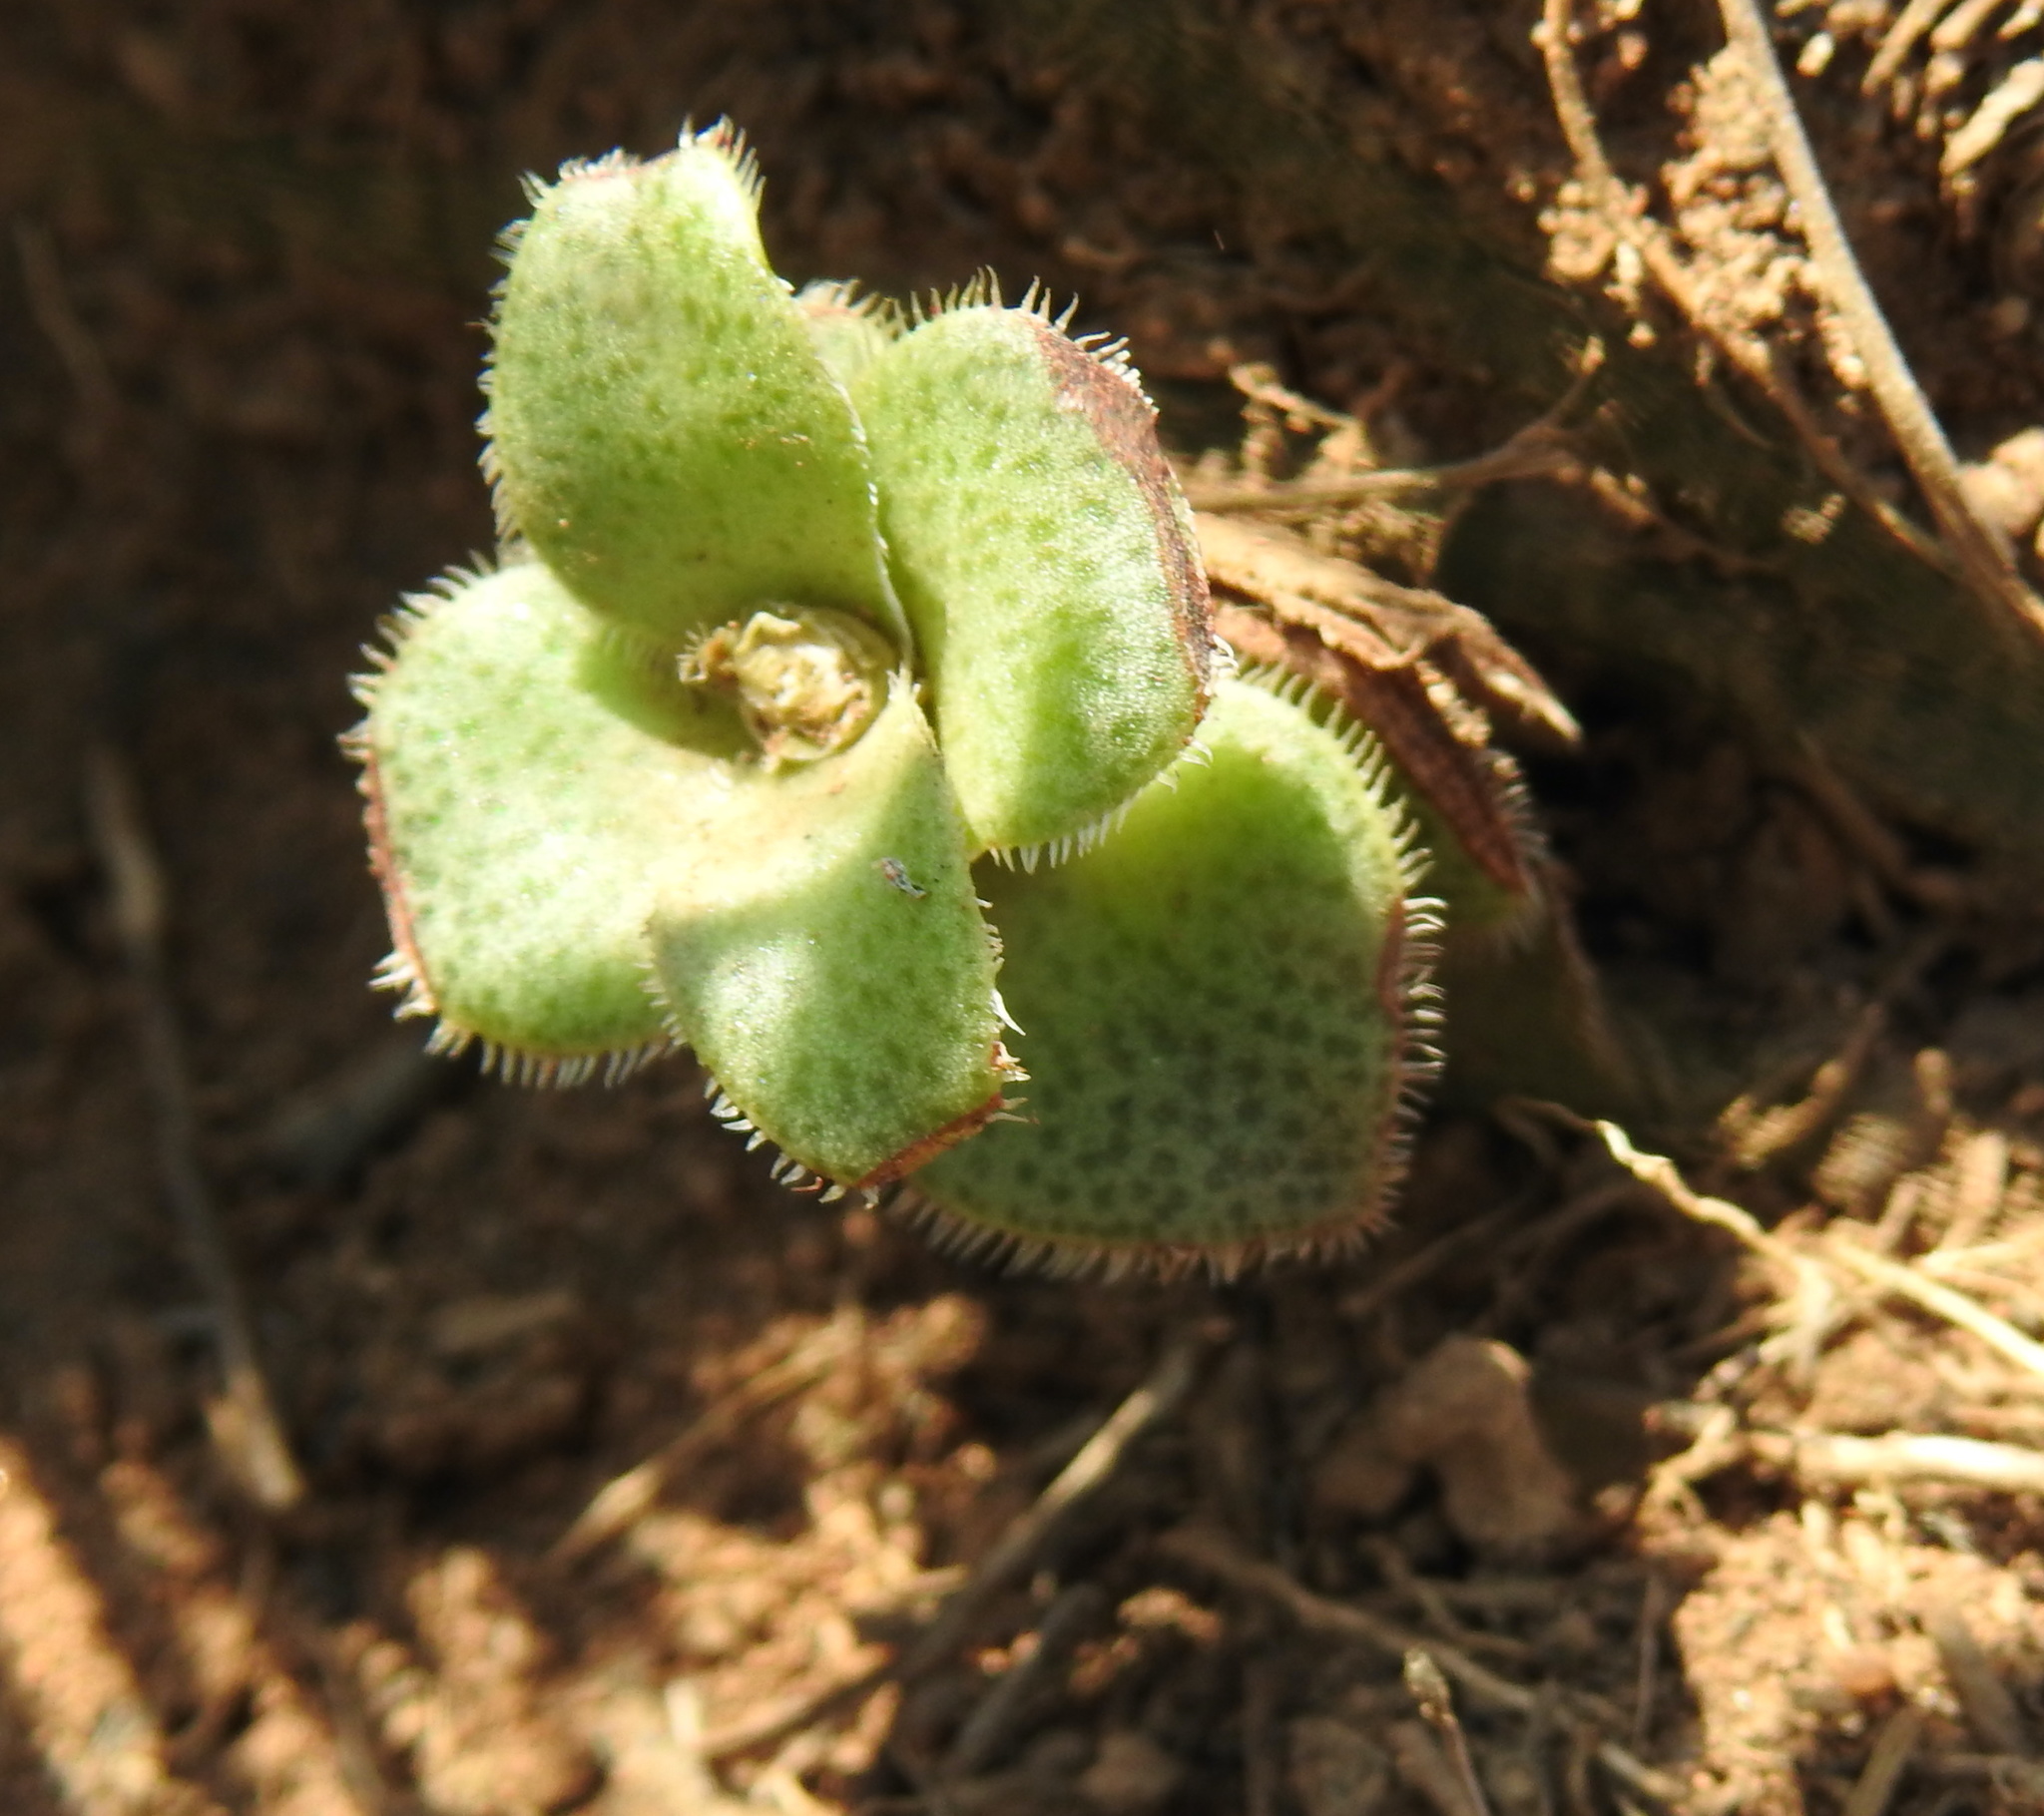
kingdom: Plantae
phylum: Tracheophyta
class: Magnoliopsida
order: Saxifragales
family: Crassulaceae
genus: Crassula
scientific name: Crassula setulosa
